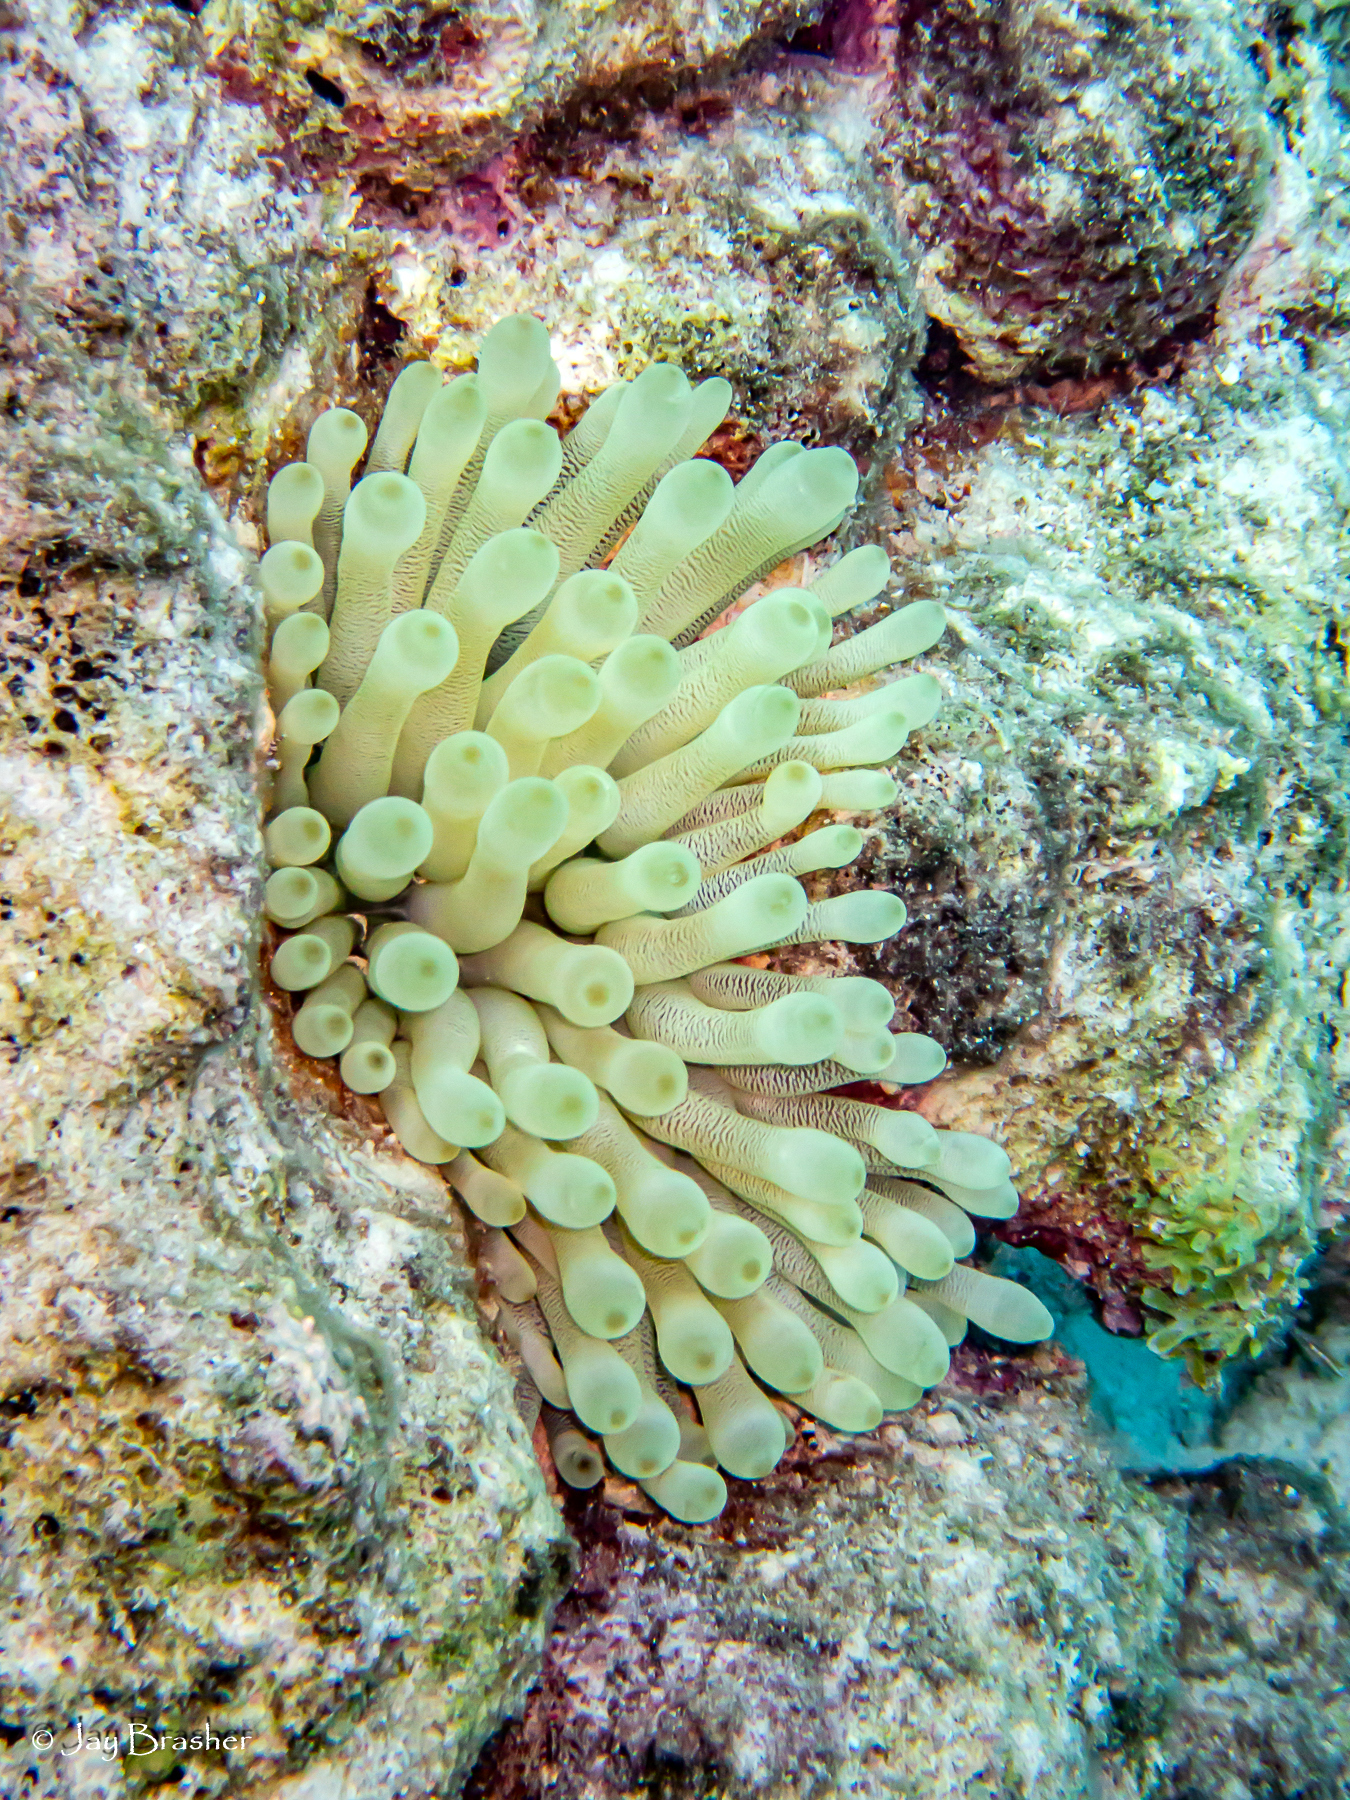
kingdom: Animalia
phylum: Cnidaria
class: Anthozoa
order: Actiniaria
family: Actiniidae
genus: Condylactis
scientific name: Condylactis gigantea
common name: Giant caribbean anemone
